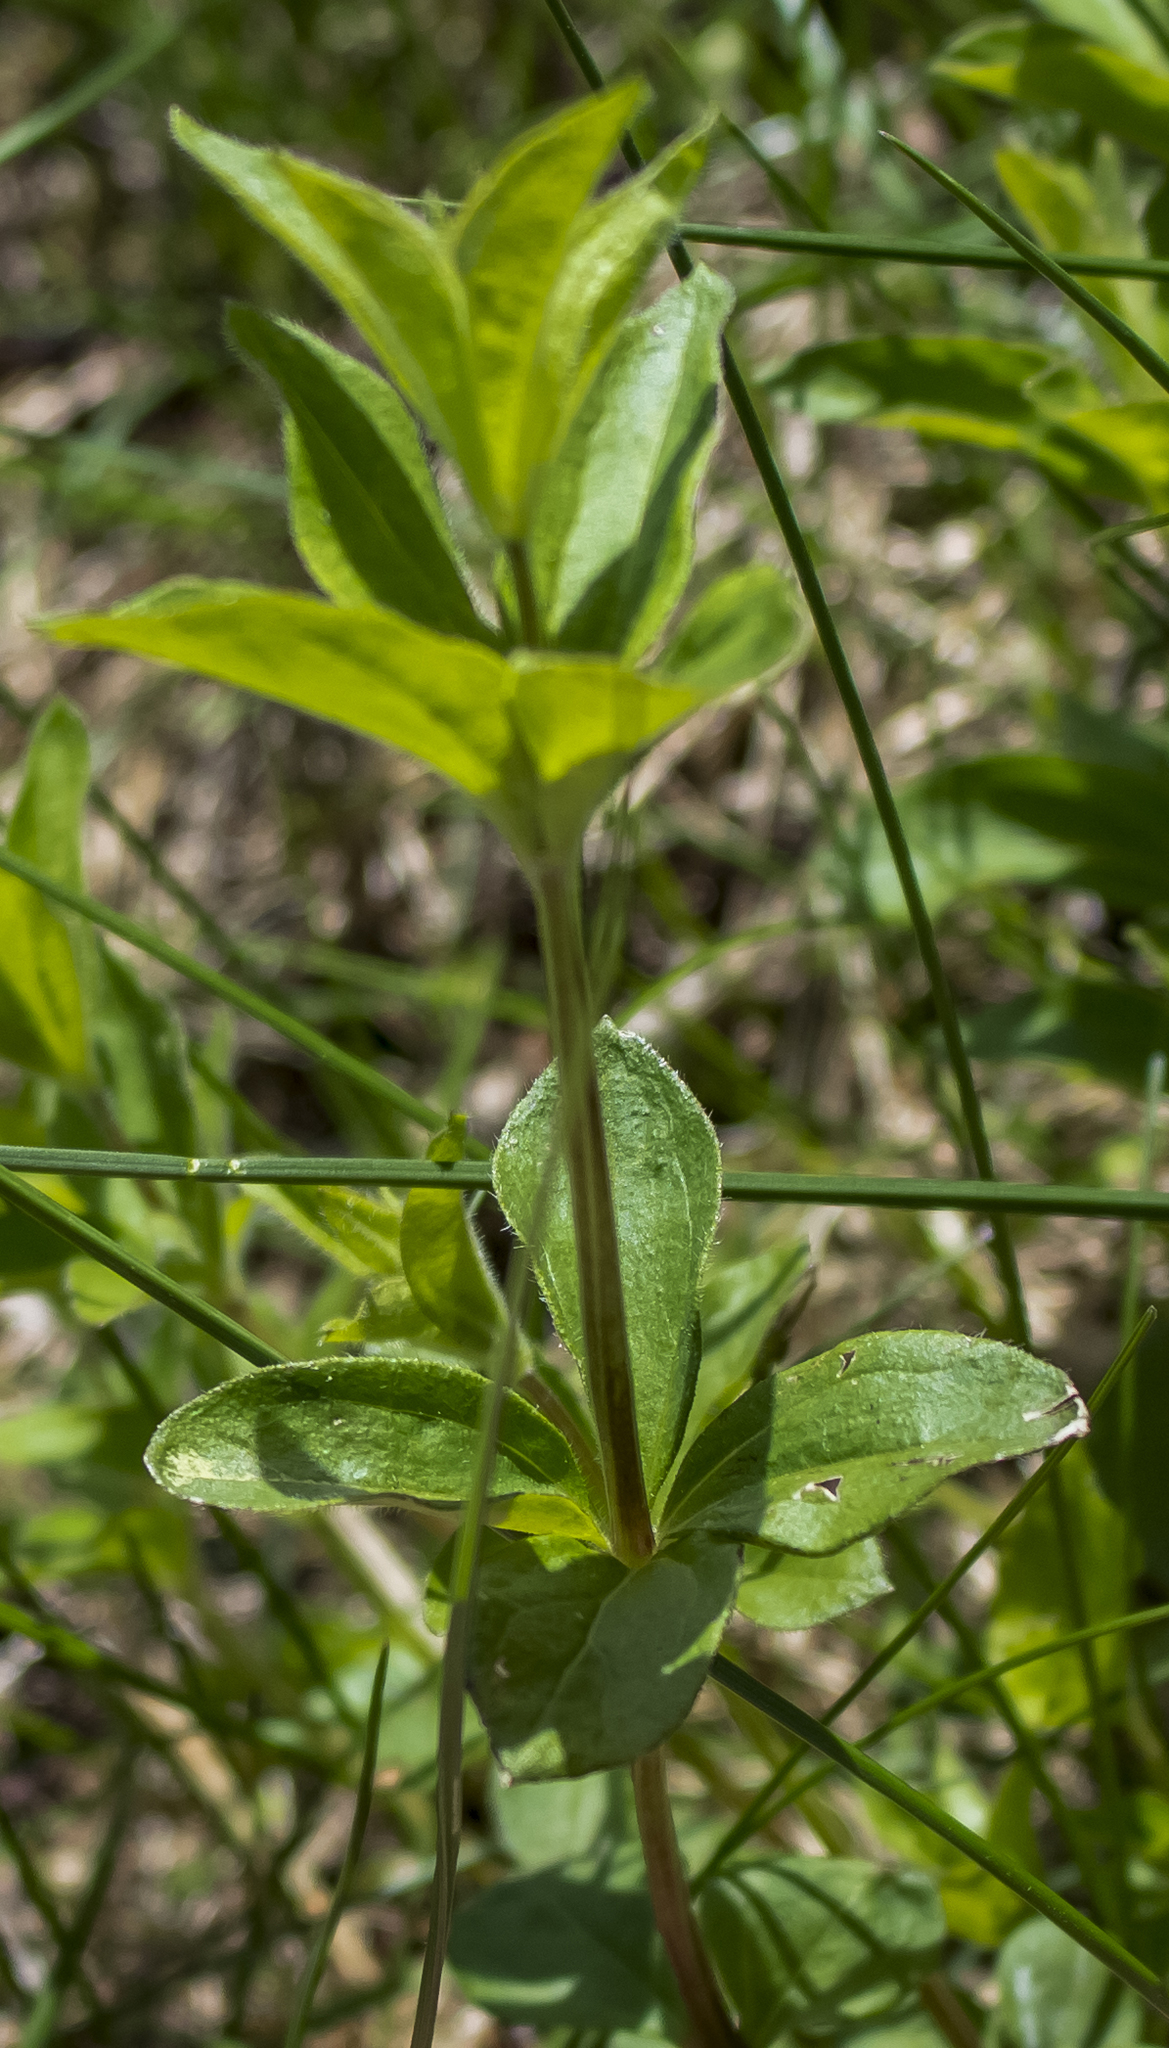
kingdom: Plantae
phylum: Tracheophyta
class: Magnoliopsida
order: Gentianales
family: Rubiaceae
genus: Galium
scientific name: Galium circaezans
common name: Forest bedstraw
